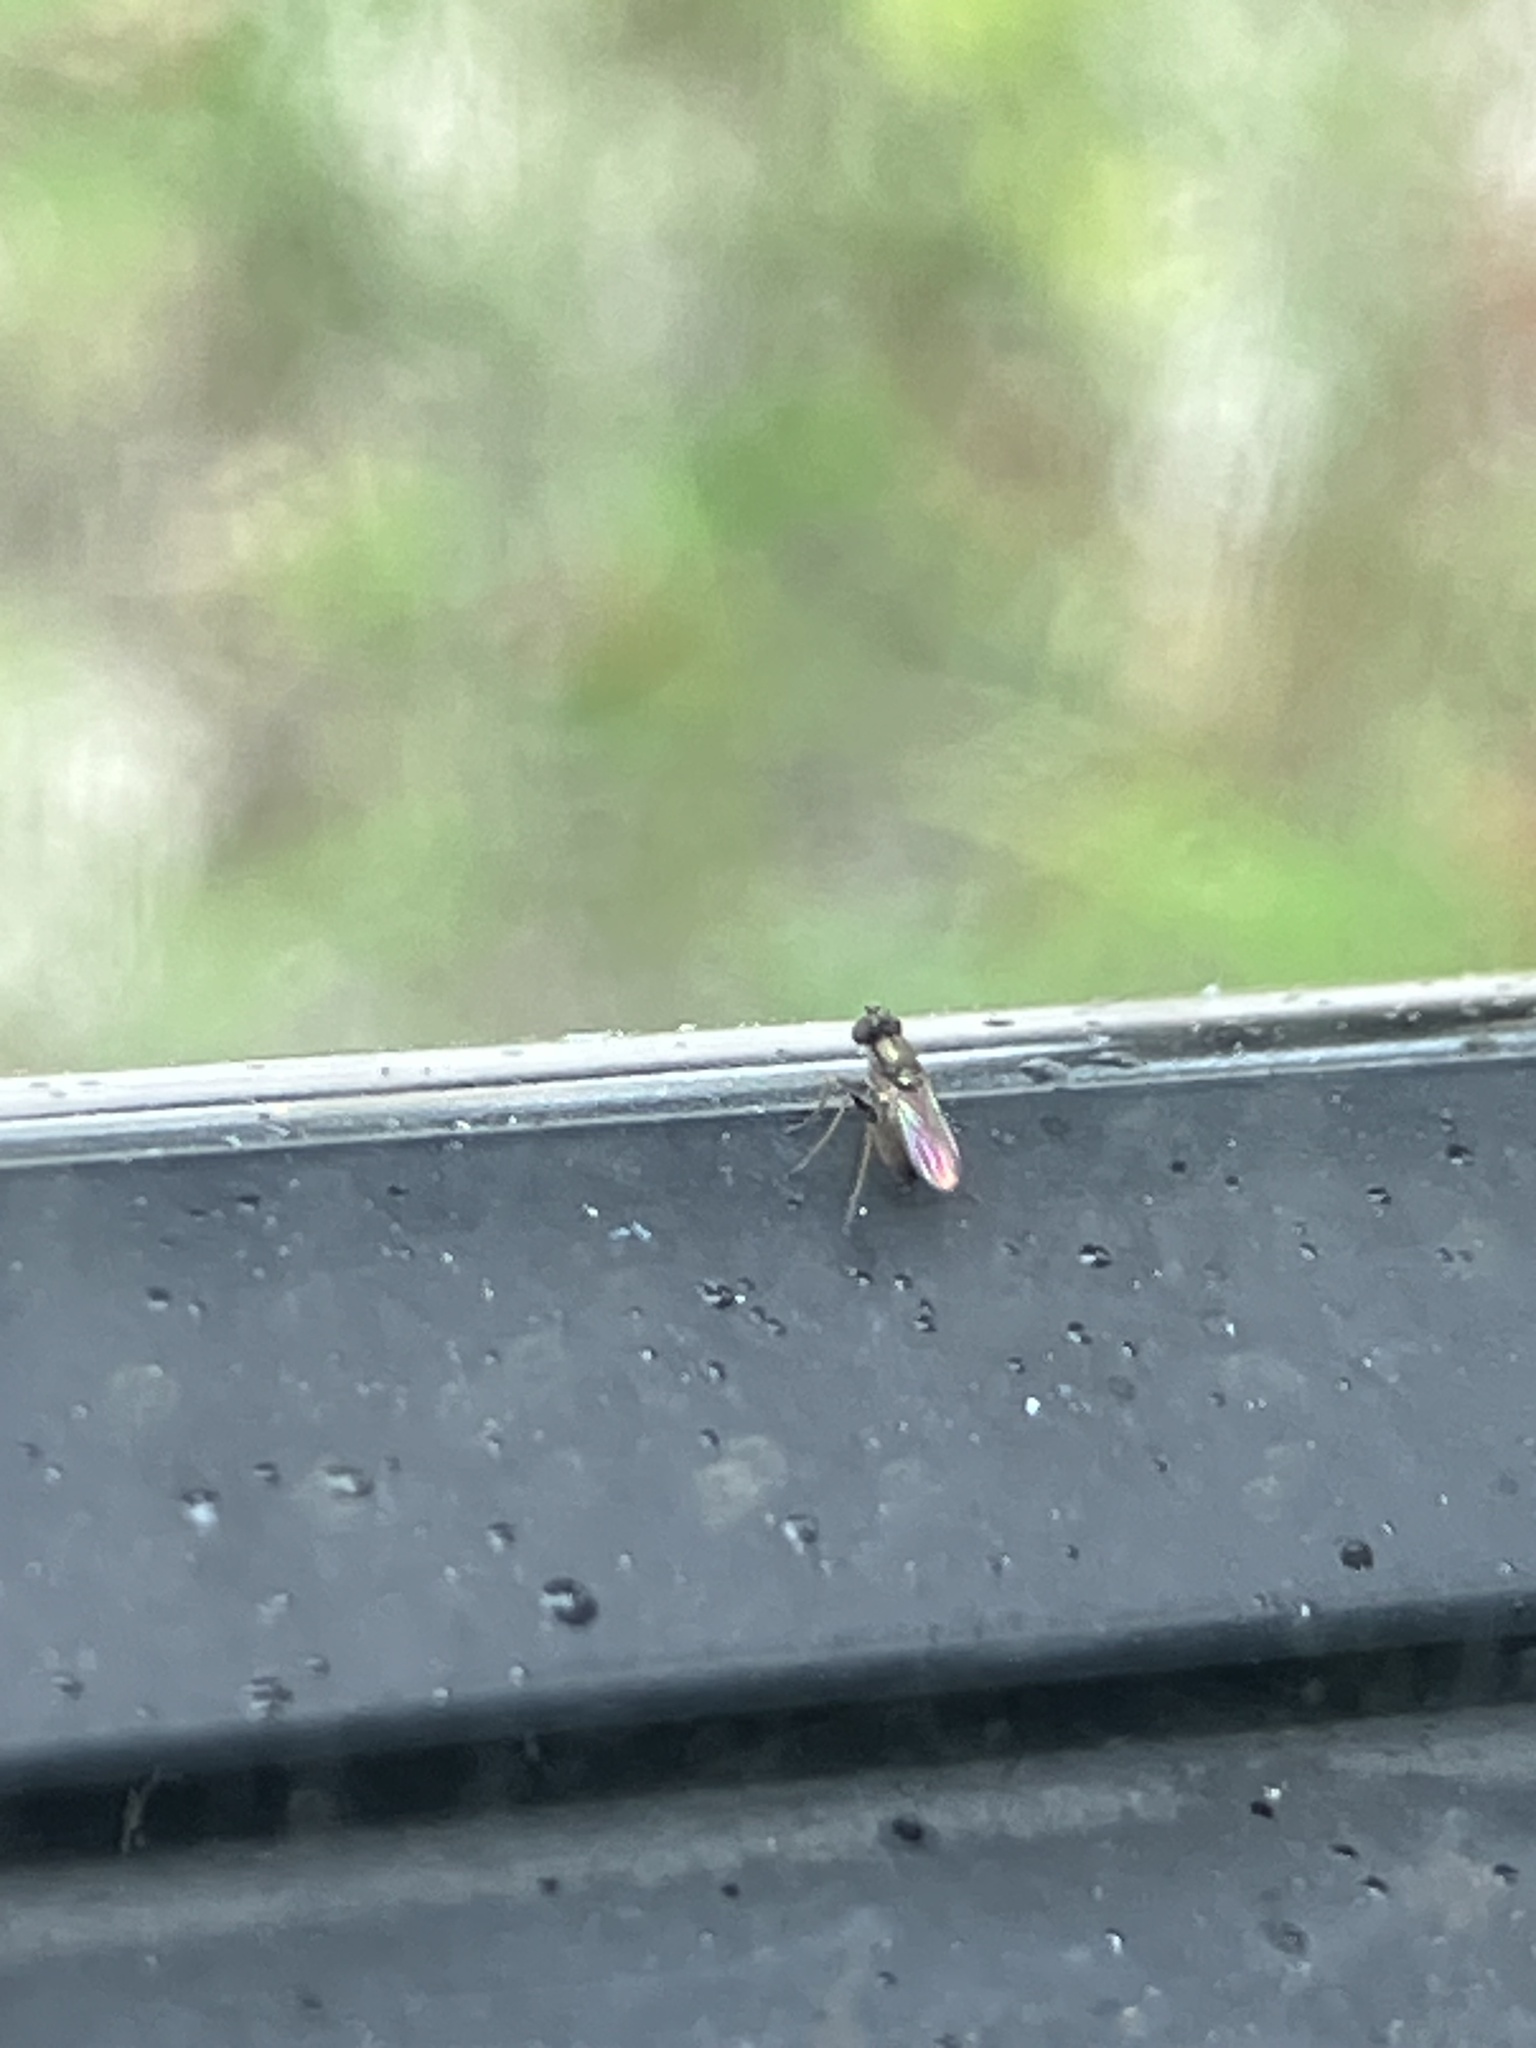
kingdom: Animalia
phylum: Arthropoda
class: Insecta
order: Diptera
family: Dolichopodidae
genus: Chrysotus
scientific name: Chrysotus
